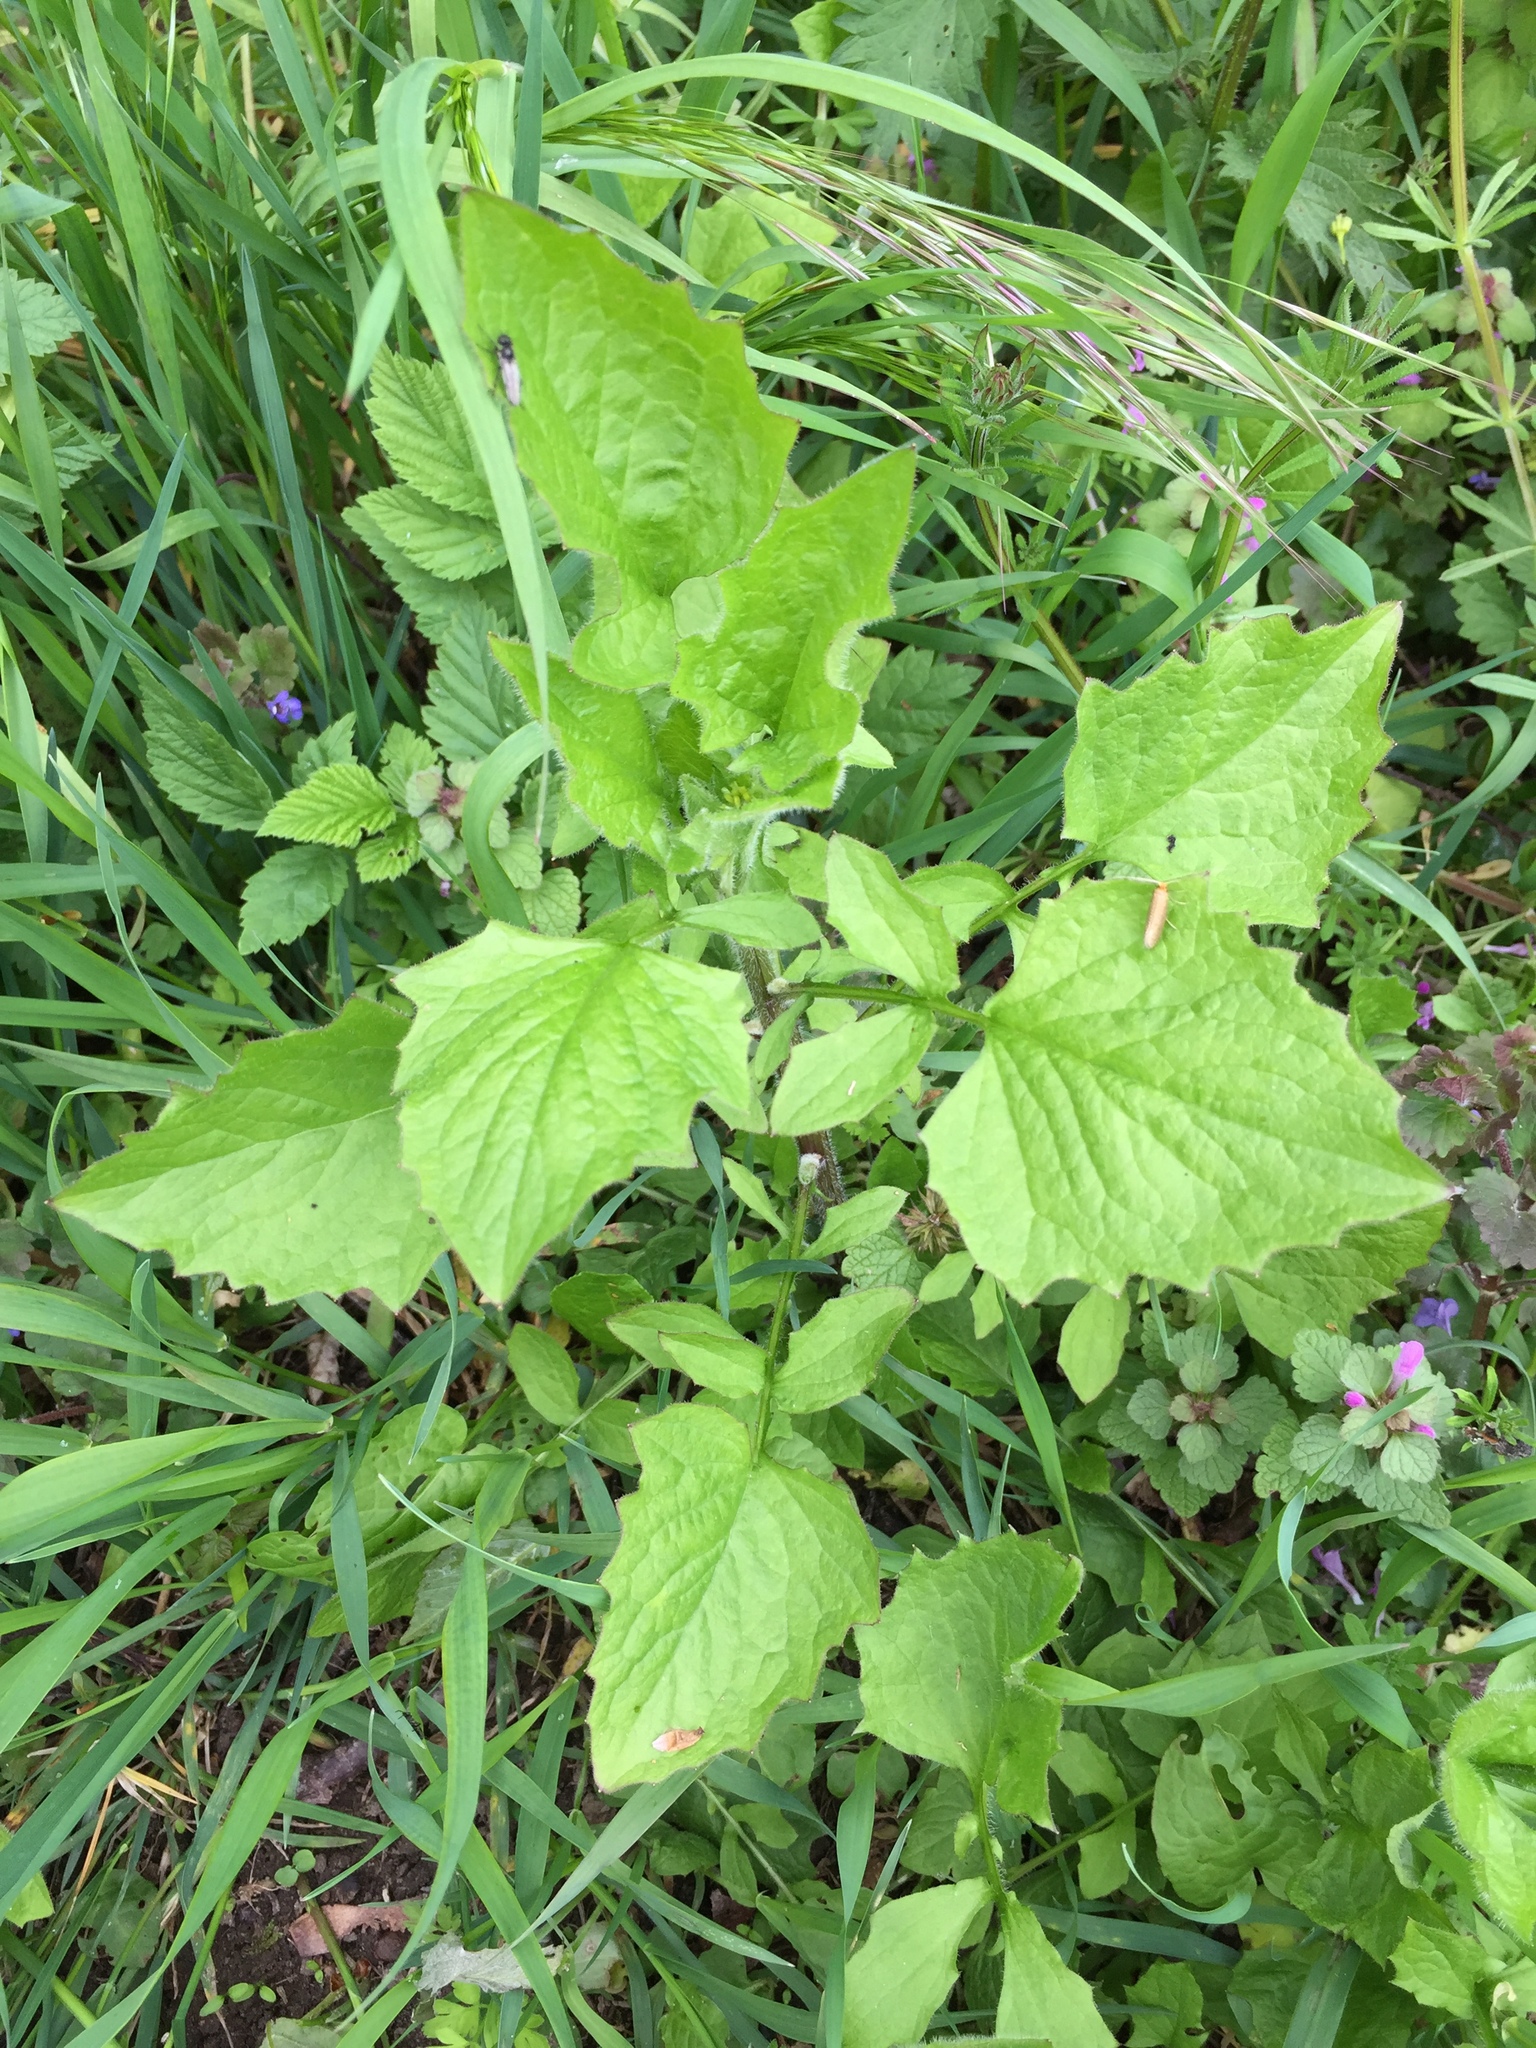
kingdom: Plantae
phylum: Tracheophyta
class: Magnoliopsida
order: Asterales
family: Asteraceae
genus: Lapsana
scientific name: Lapsana communis
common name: Nipplewort
